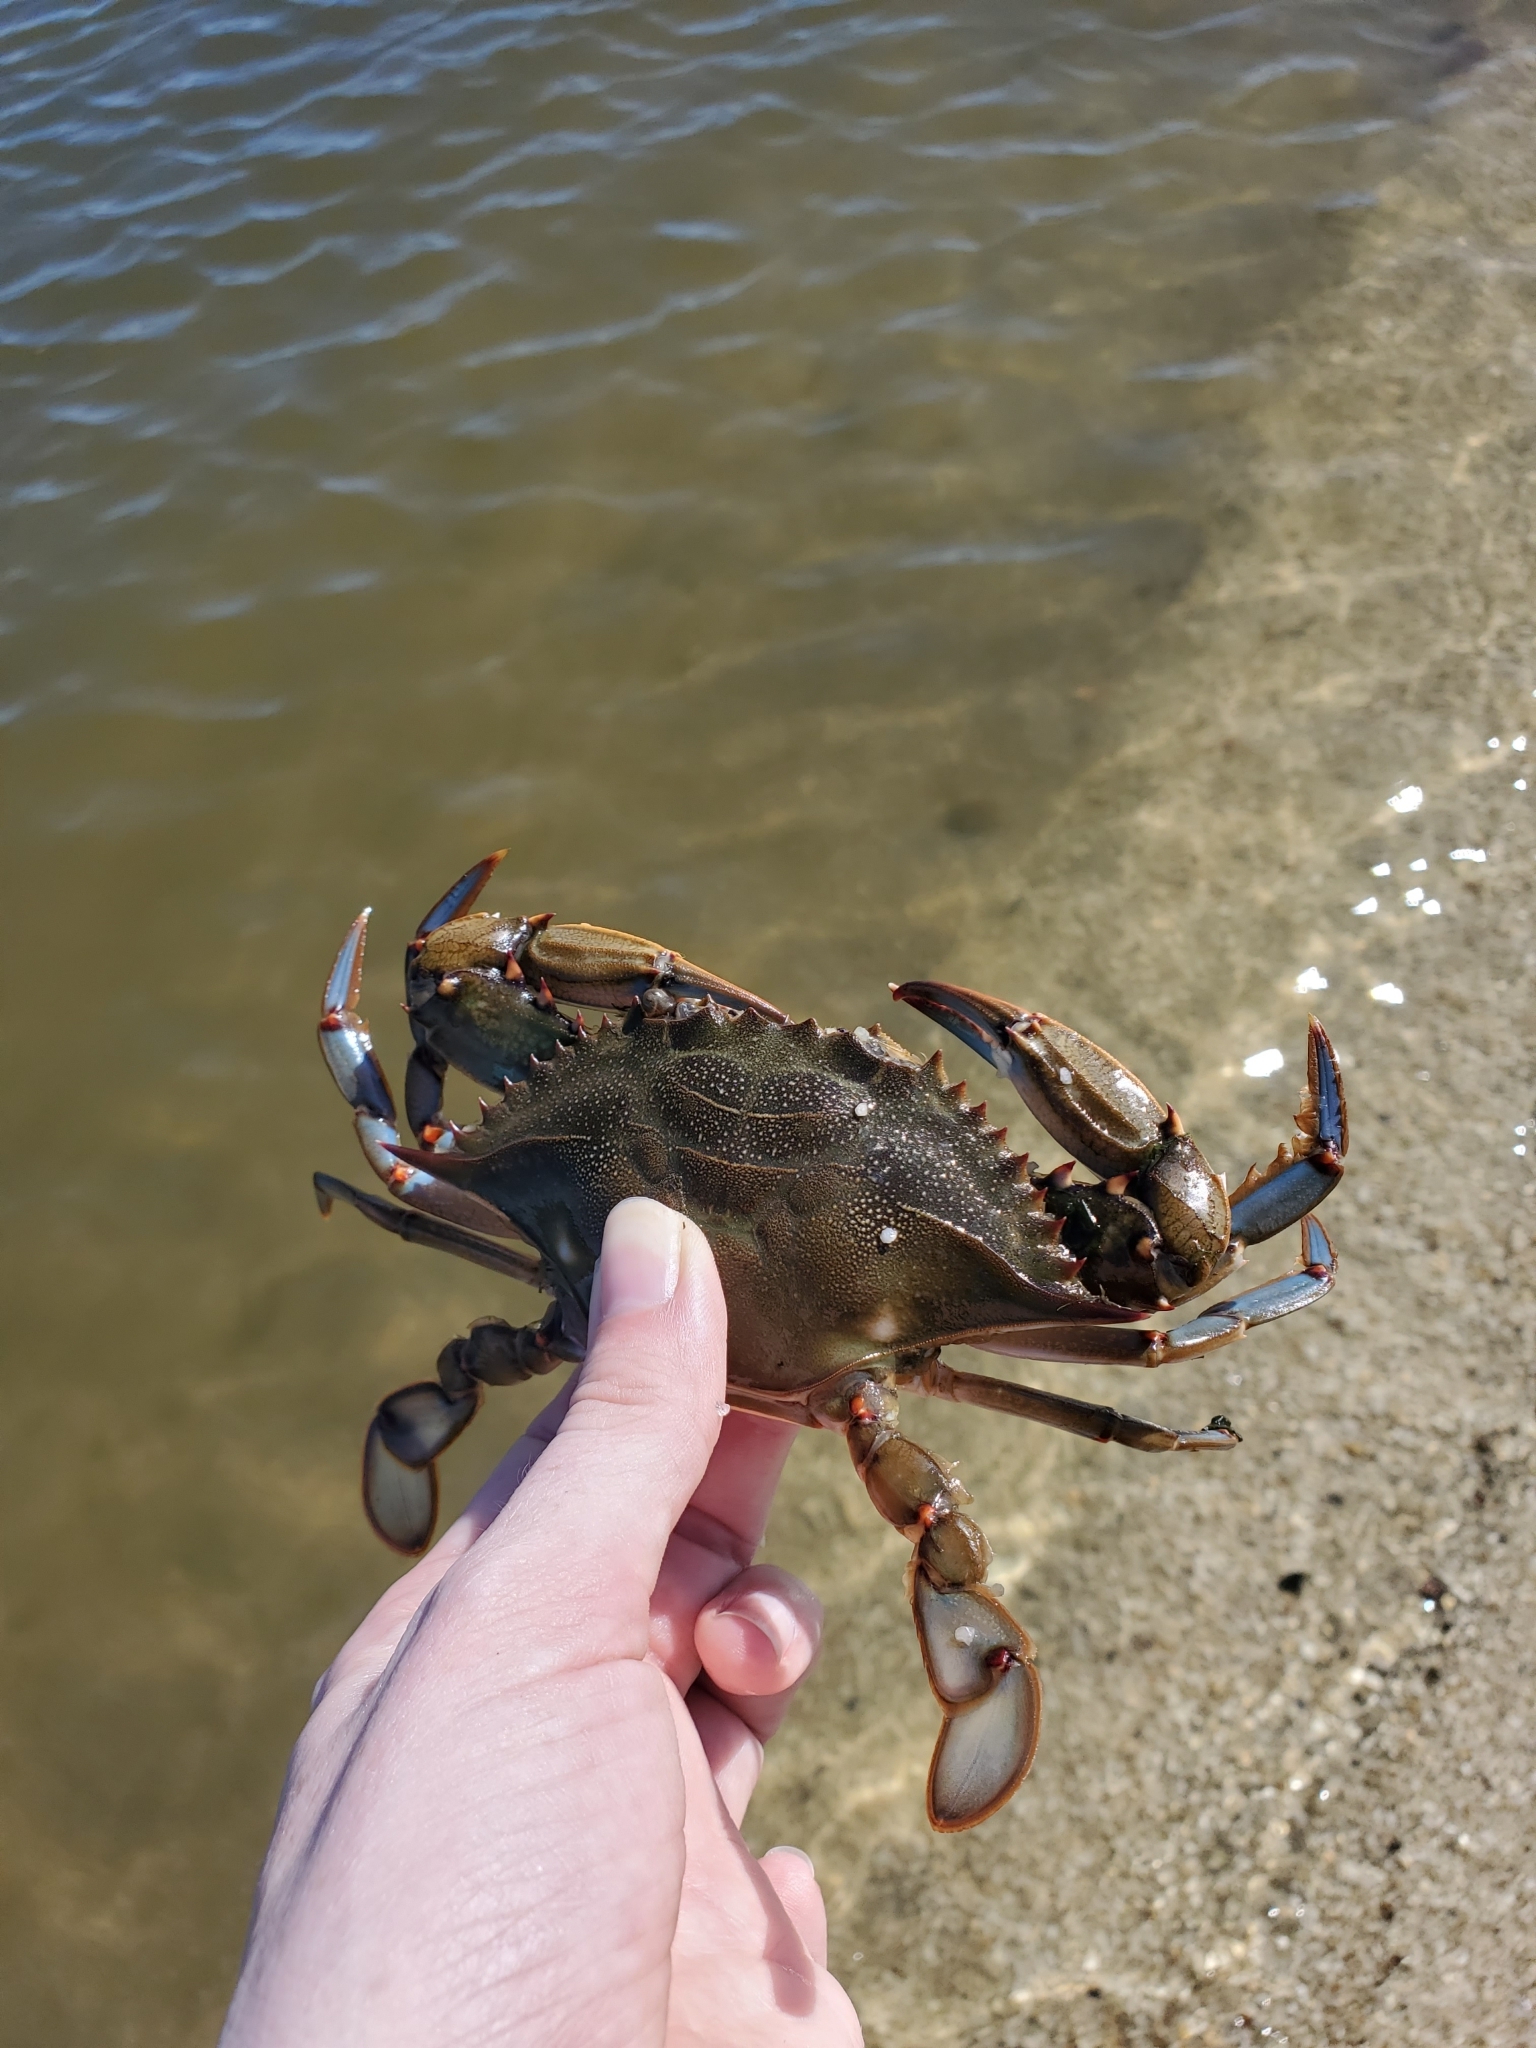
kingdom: Animalia
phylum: Arthropoda
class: Malacostraca
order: Decapoda
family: Portunidae
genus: Callinectes
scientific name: Callinectes sapidus
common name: Blue crab
